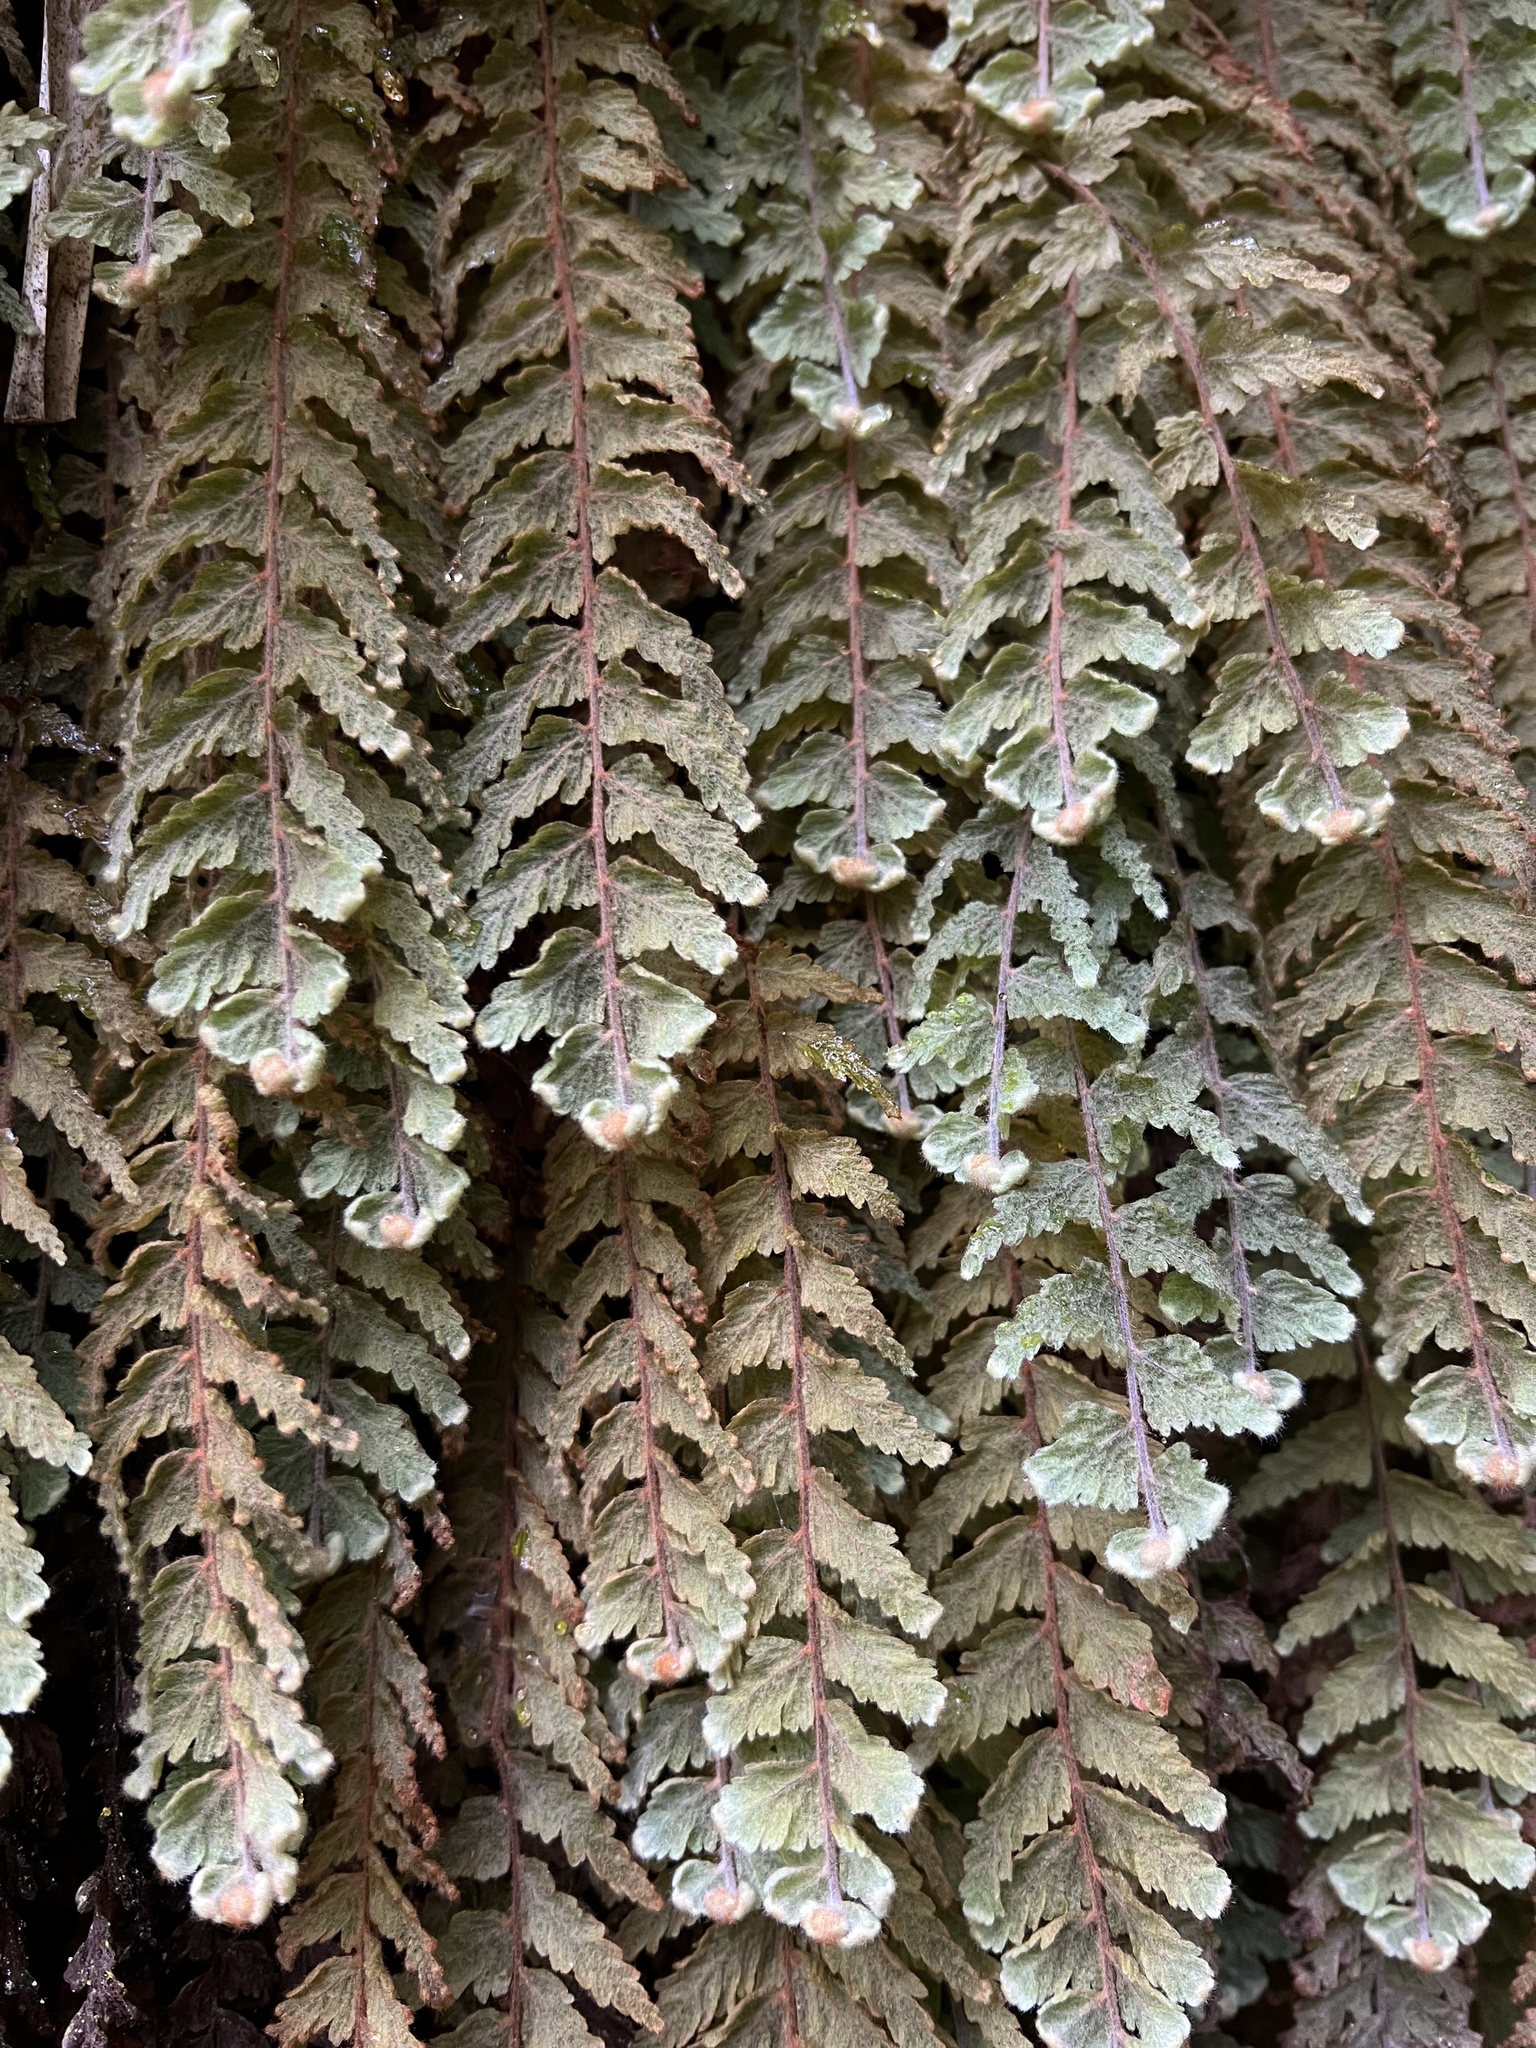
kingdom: Plantae
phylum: Tracheophyta
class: Polypodiopsida
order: Hymenophyllales
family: Hymenophyllaceae
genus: Hymenophyllum
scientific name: Hymenophyllum tomentosum
